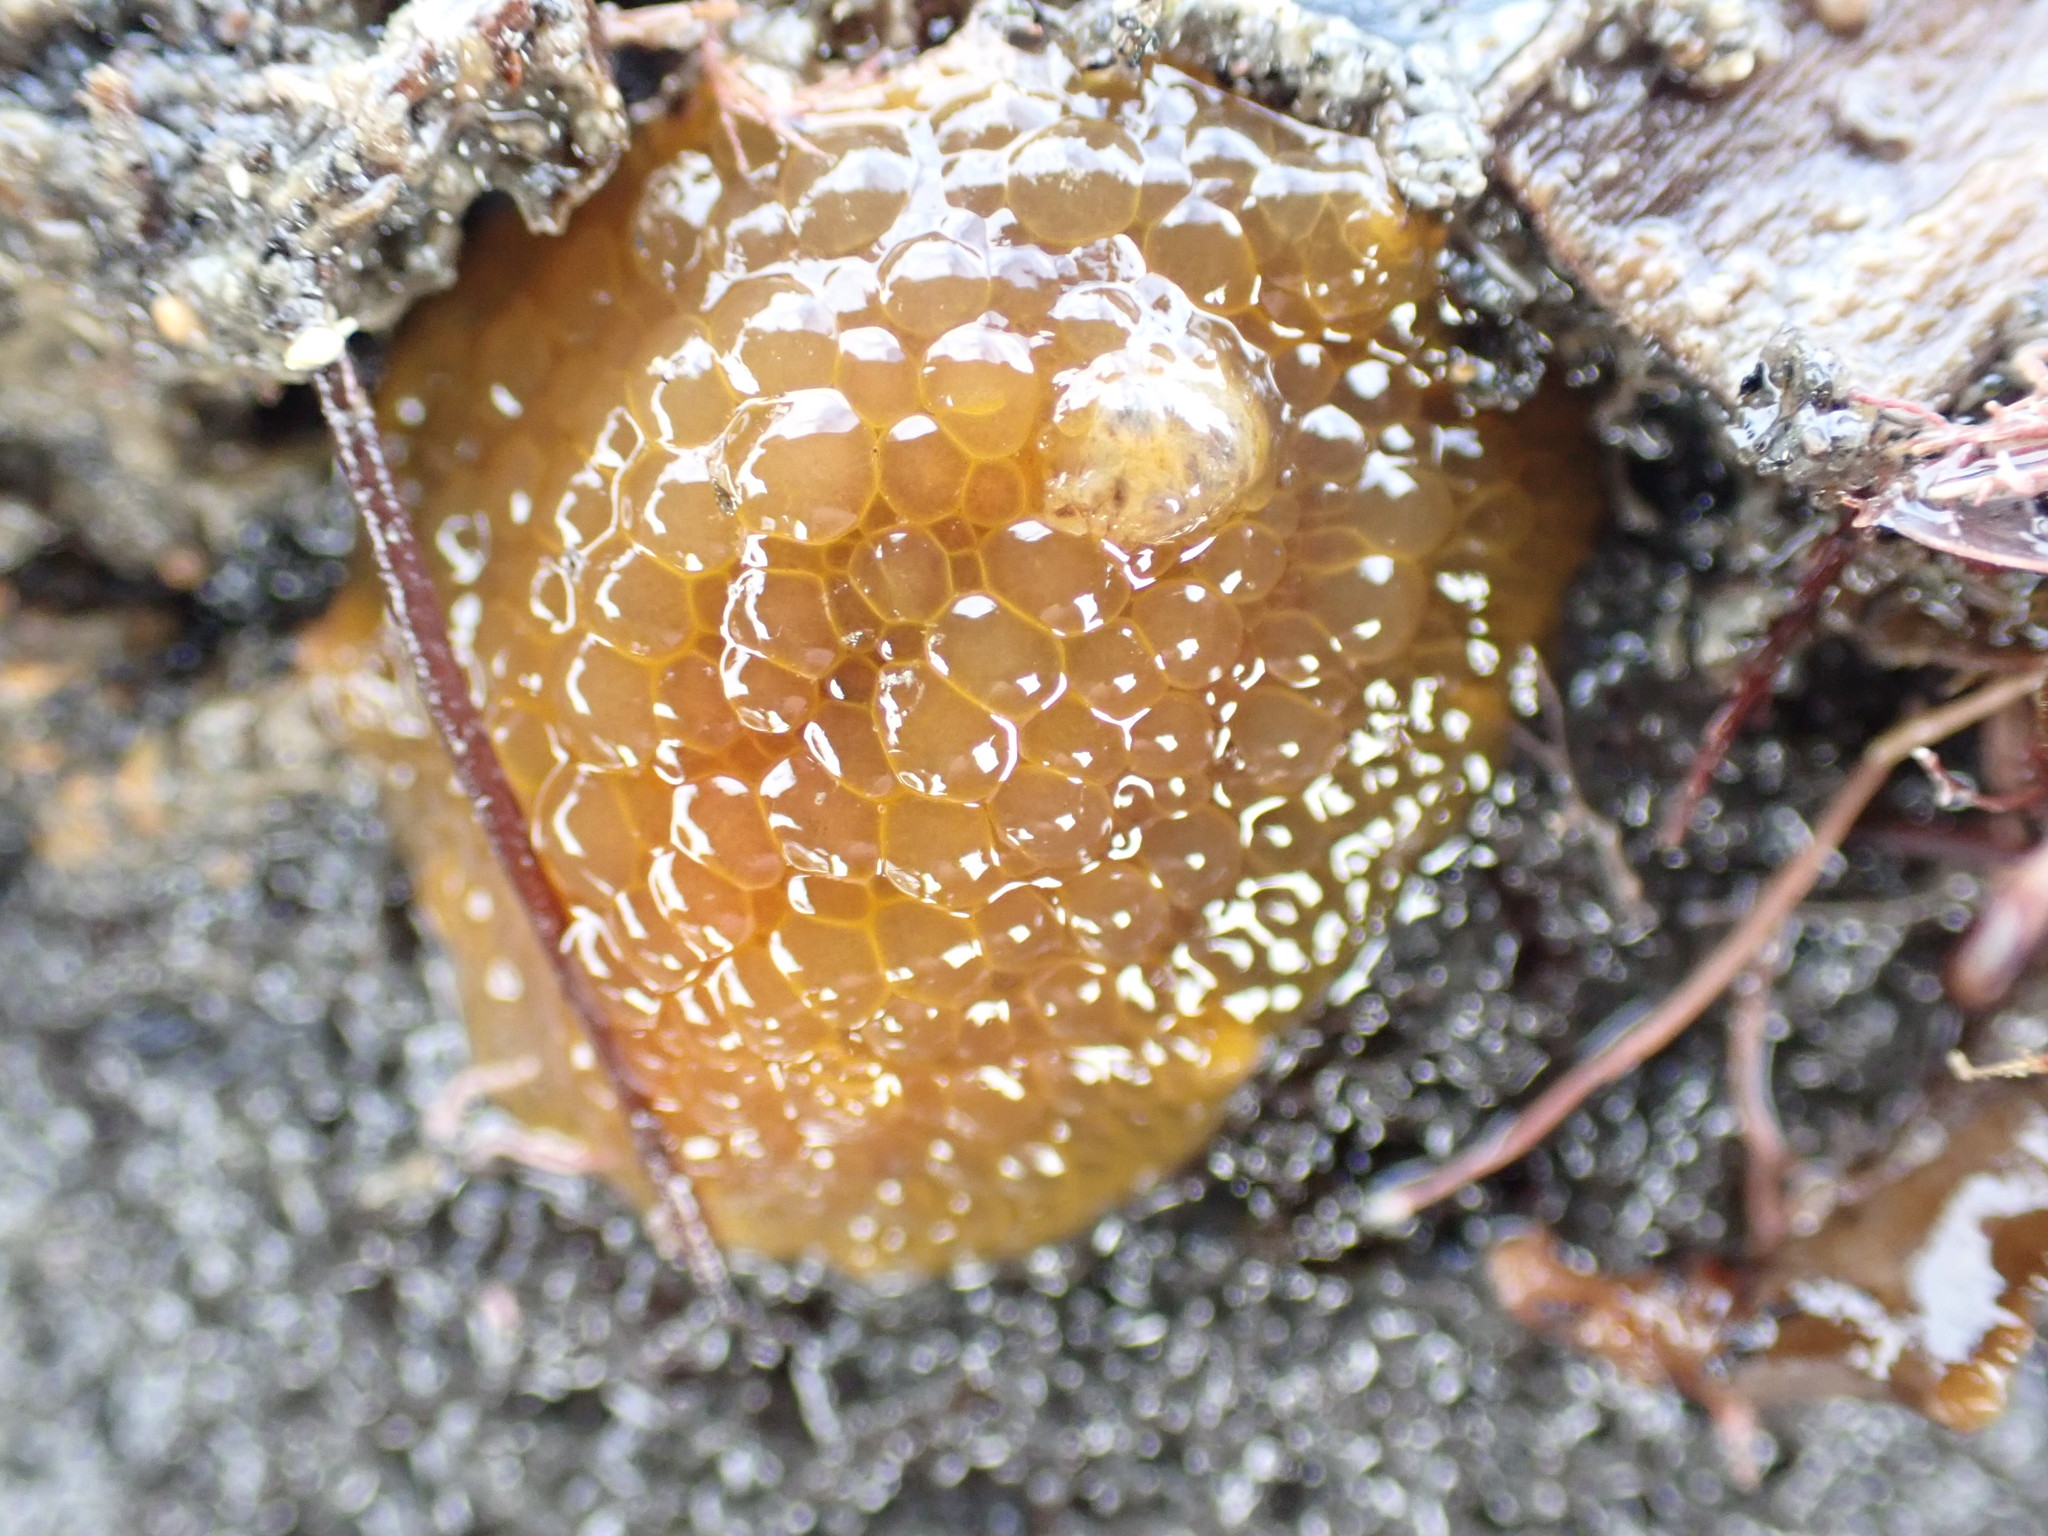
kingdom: Animalia
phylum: Mollusca
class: Gastropoda
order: Nudibranchia
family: Dorididae
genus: Doris
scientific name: Doris wellingtonensis
